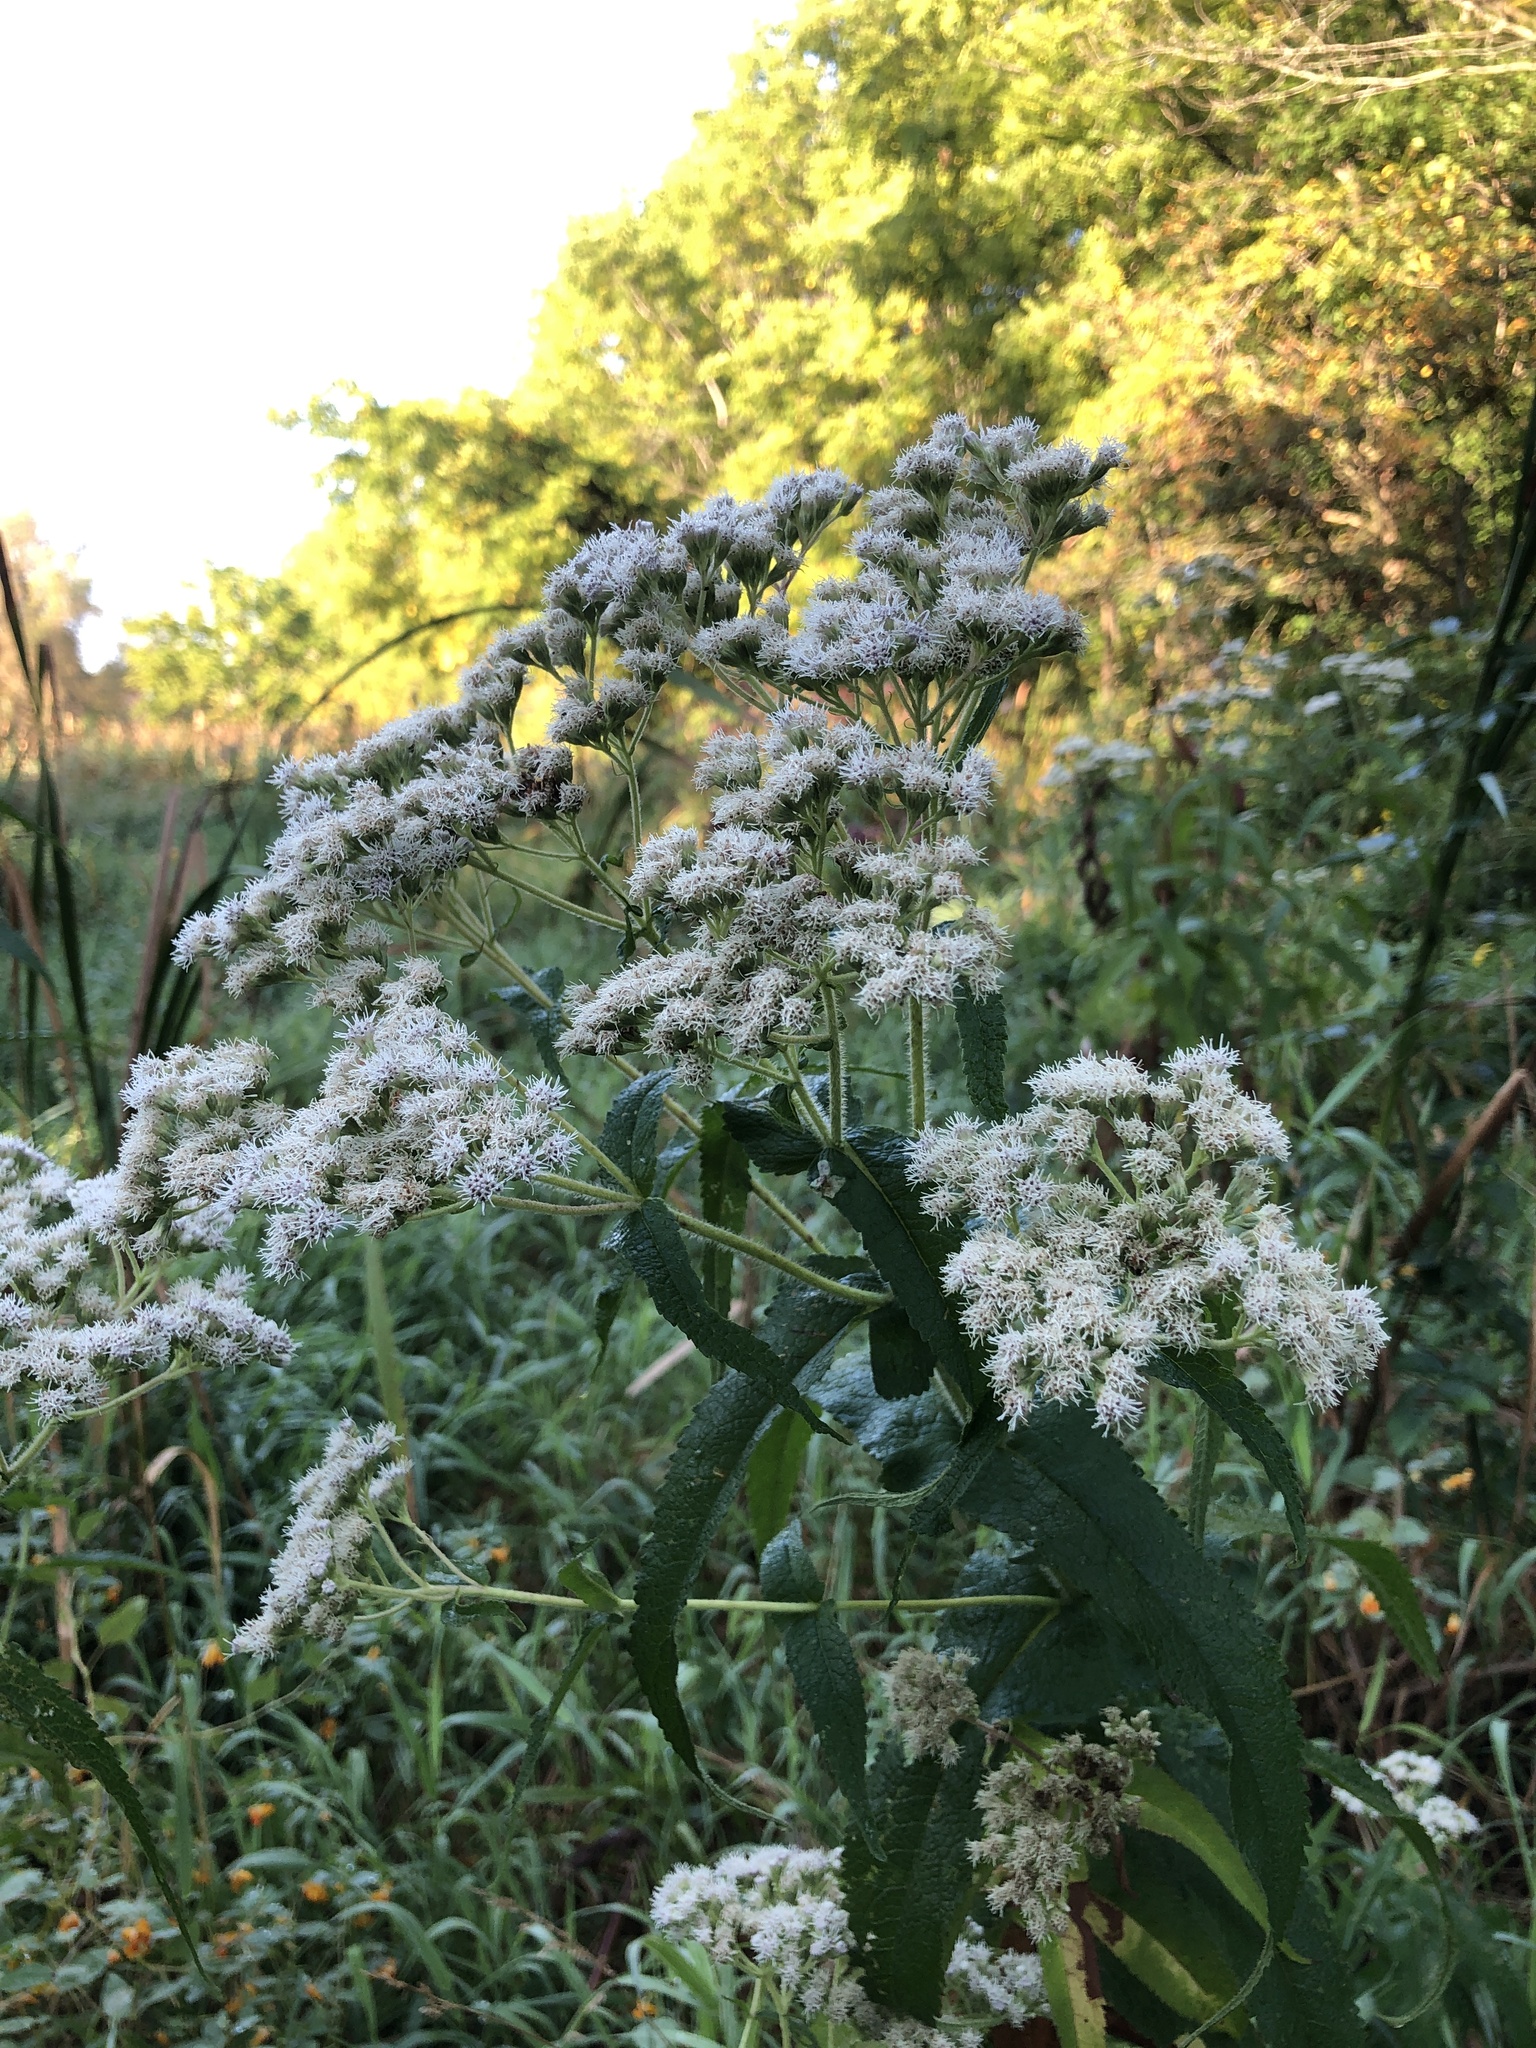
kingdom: Plantae
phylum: Tracheophyta
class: Magnoliopsida
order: Asterales
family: Asteraceae
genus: Eupatorium
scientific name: Eupatorium perfoliatum
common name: Boneset
